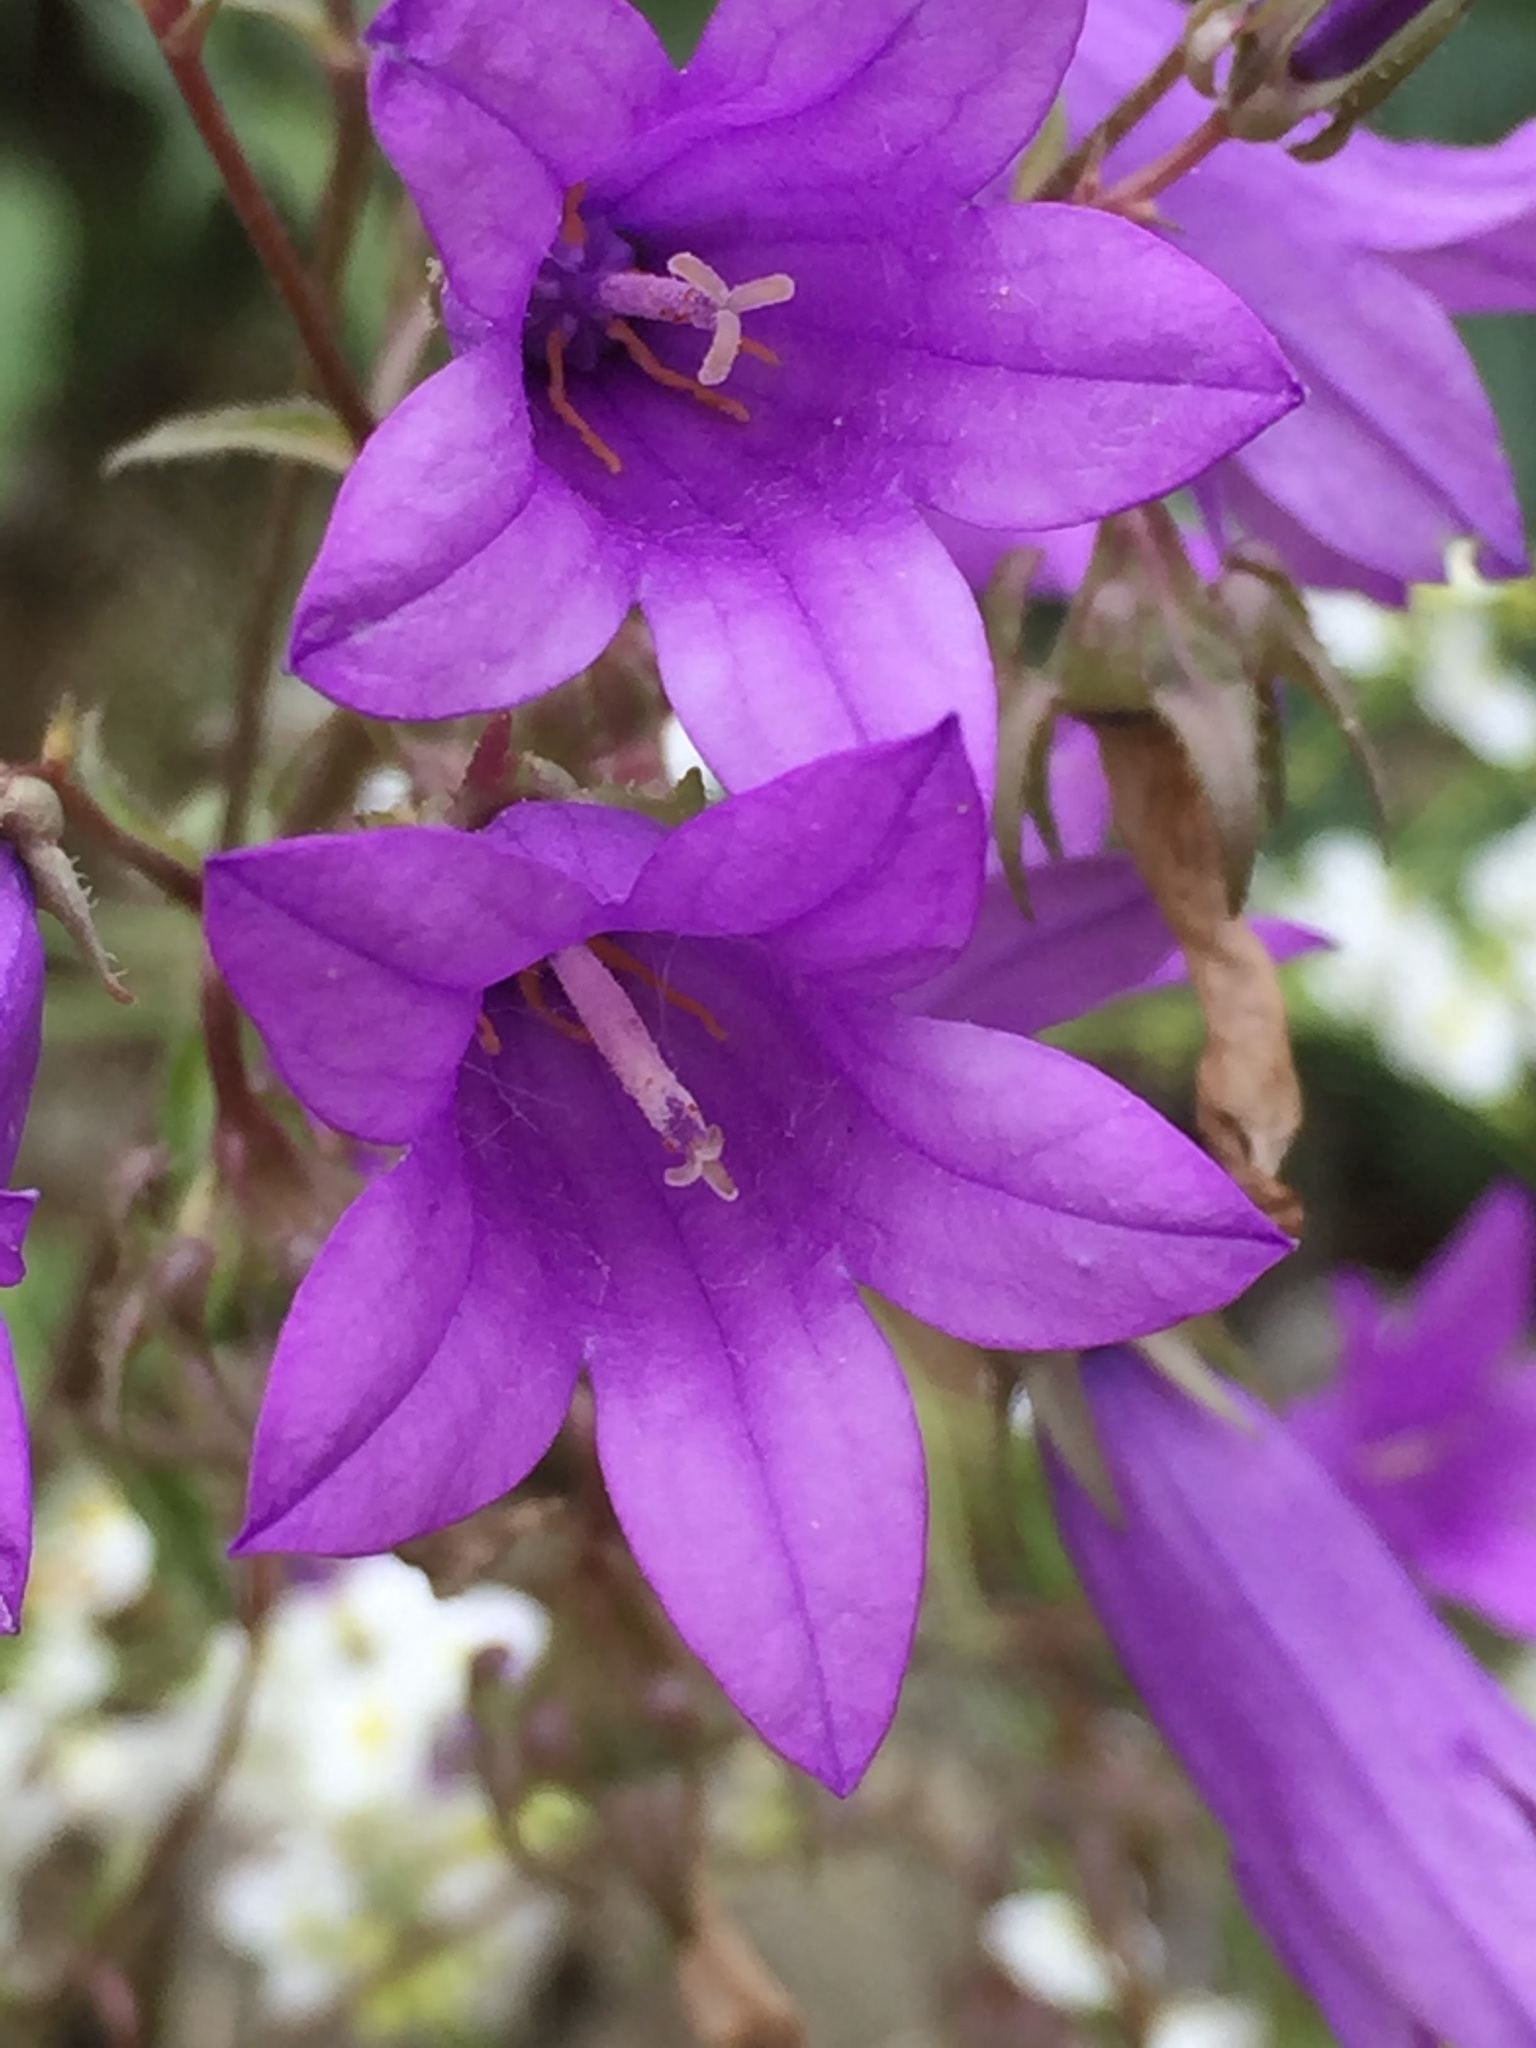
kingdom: Plantae
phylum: Tracheophyta
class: Magnoliopsida
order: Asterales
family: Campanulaceae
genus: Campanula
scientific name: Campanula sibirica
